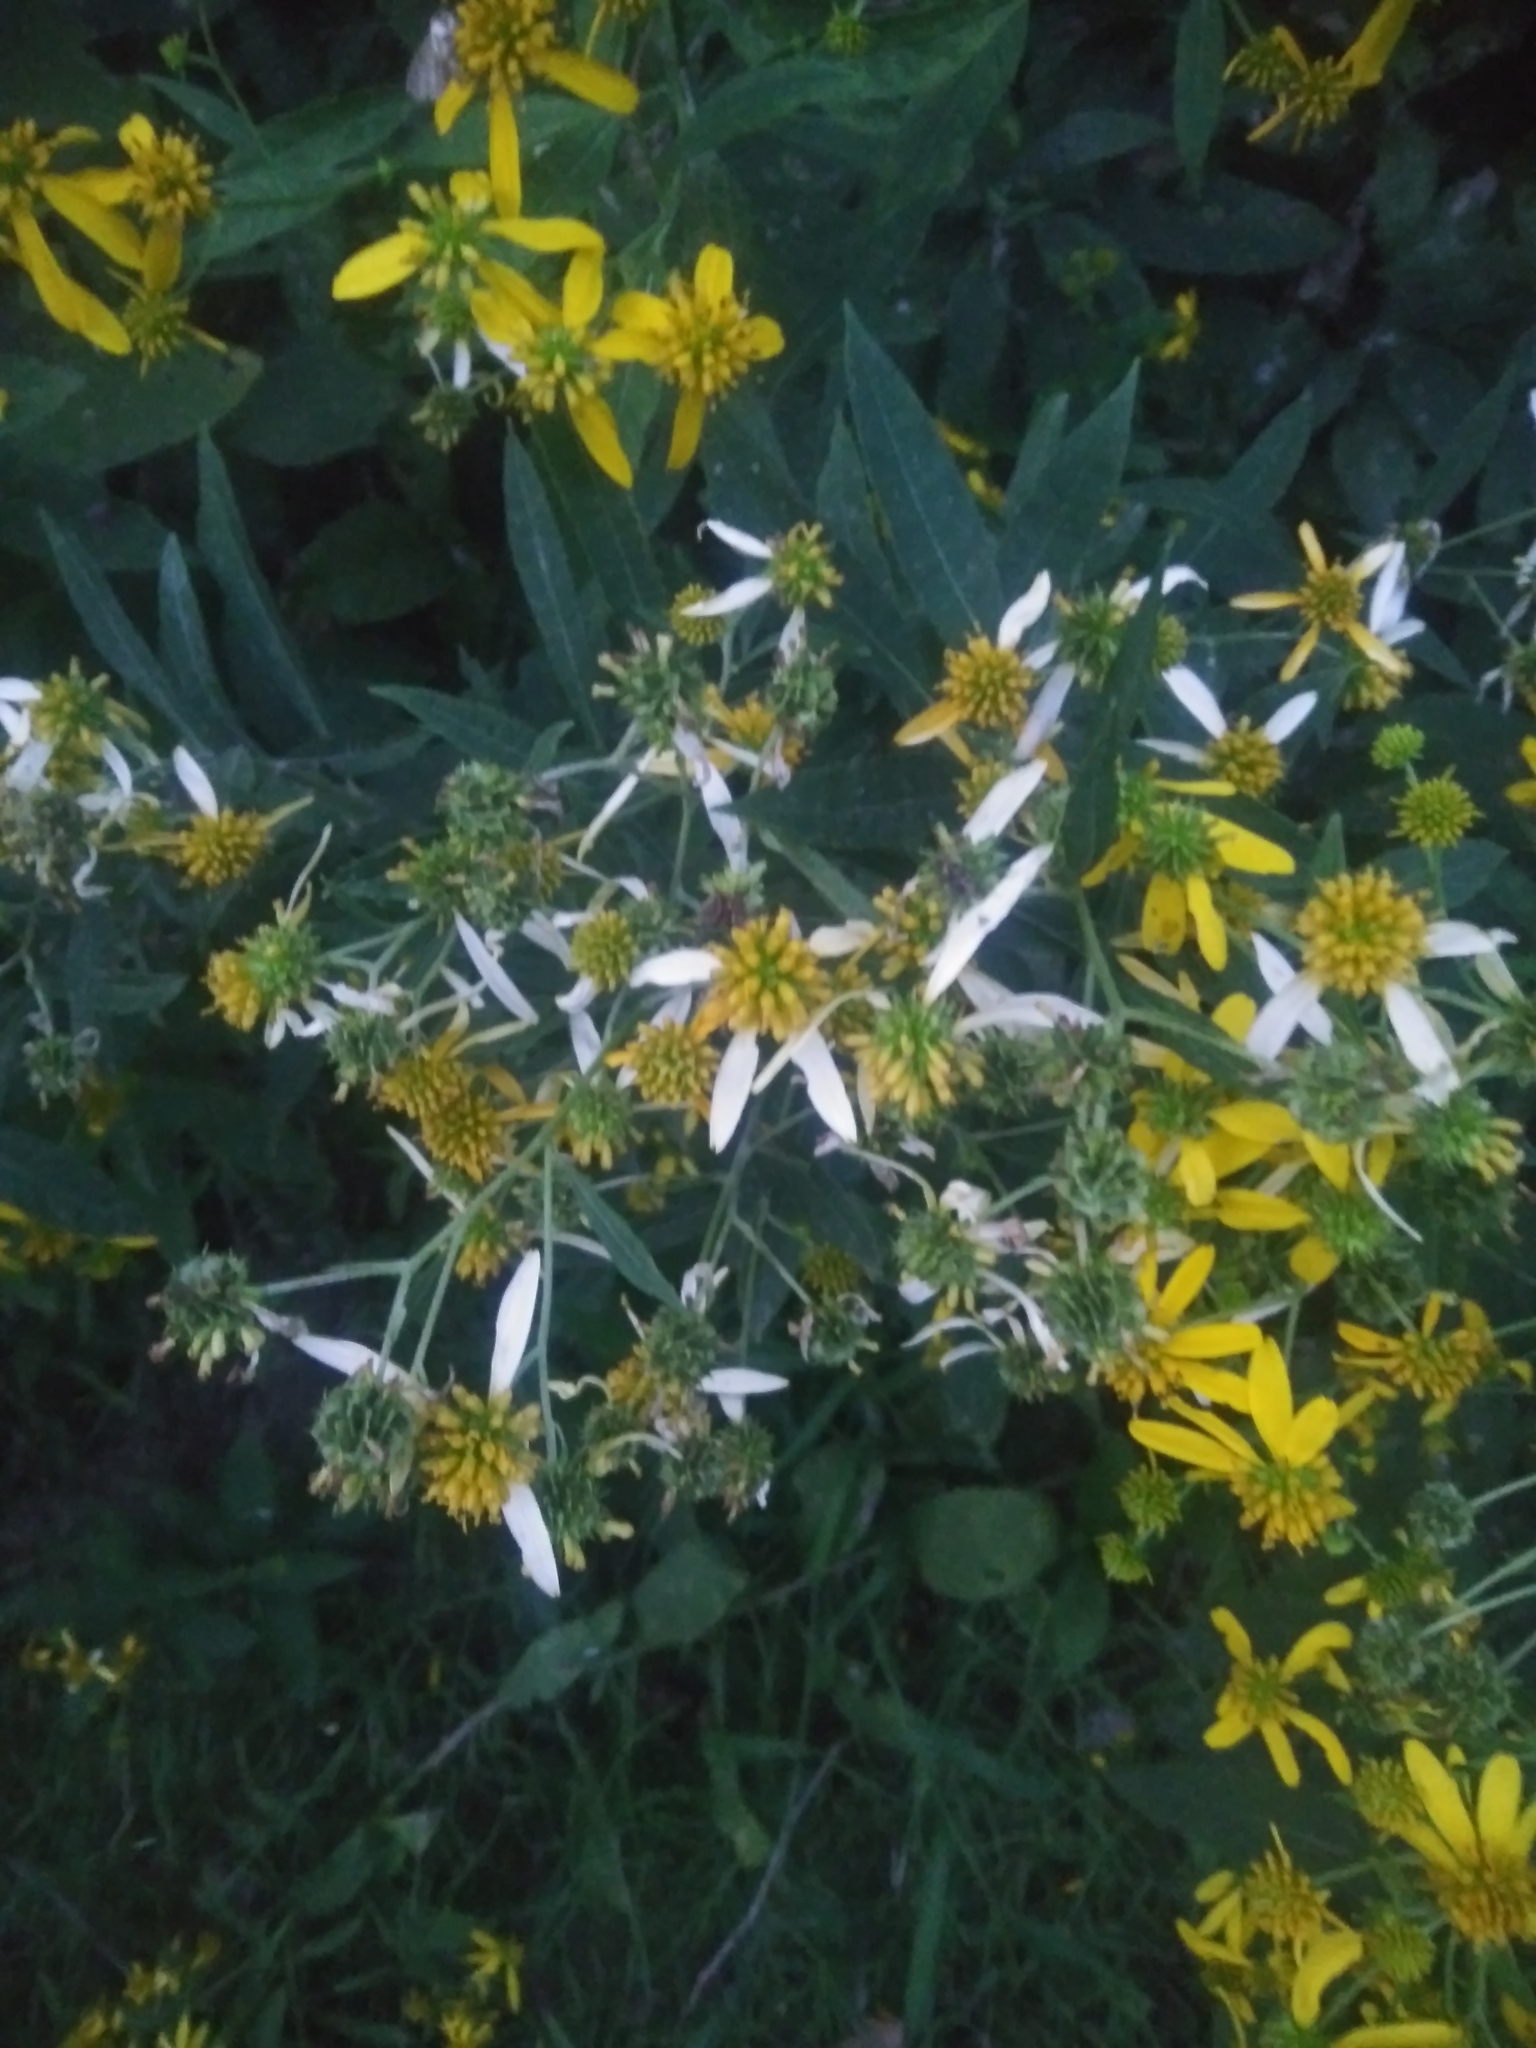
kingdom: Plantae
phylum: Tracheophyta
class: Magnoliopsida
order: Asterales
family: Asteraceae
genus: Verbesina
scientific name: Verbesina alternifolia
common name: Wingstem
